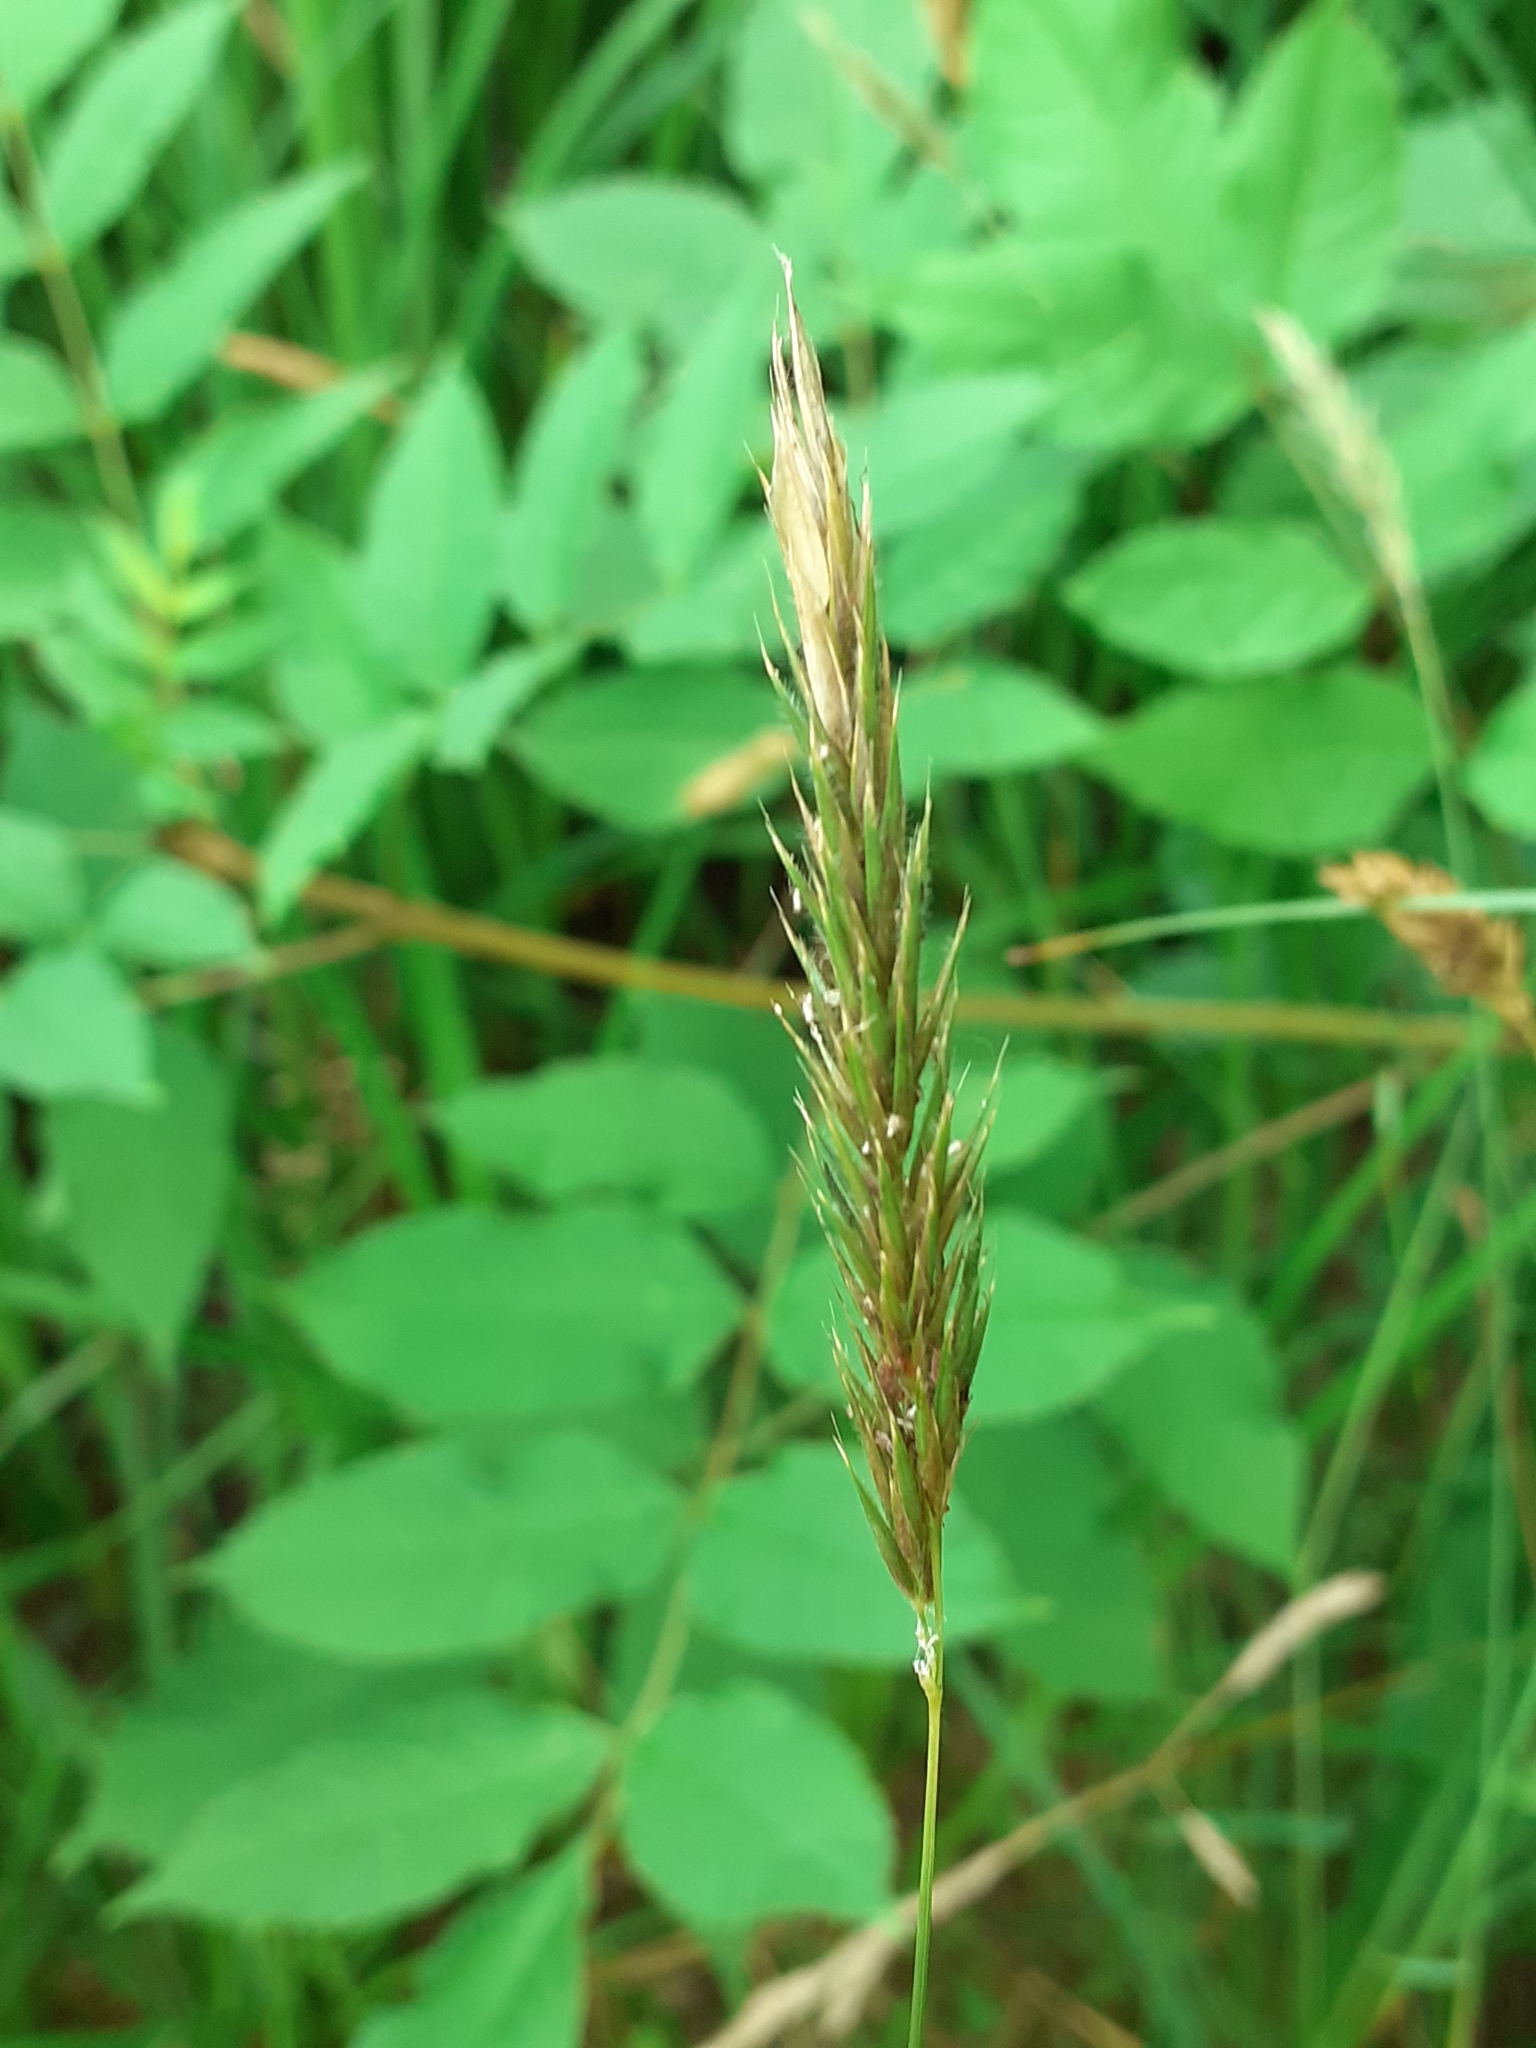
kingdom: Plantae
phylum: Tracheophyta
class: Liliopsida
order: Poales
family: Poaceae
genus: Anthoxanthum
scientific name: Anthoxanthum odoratum
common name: Sweet vernalgrass
